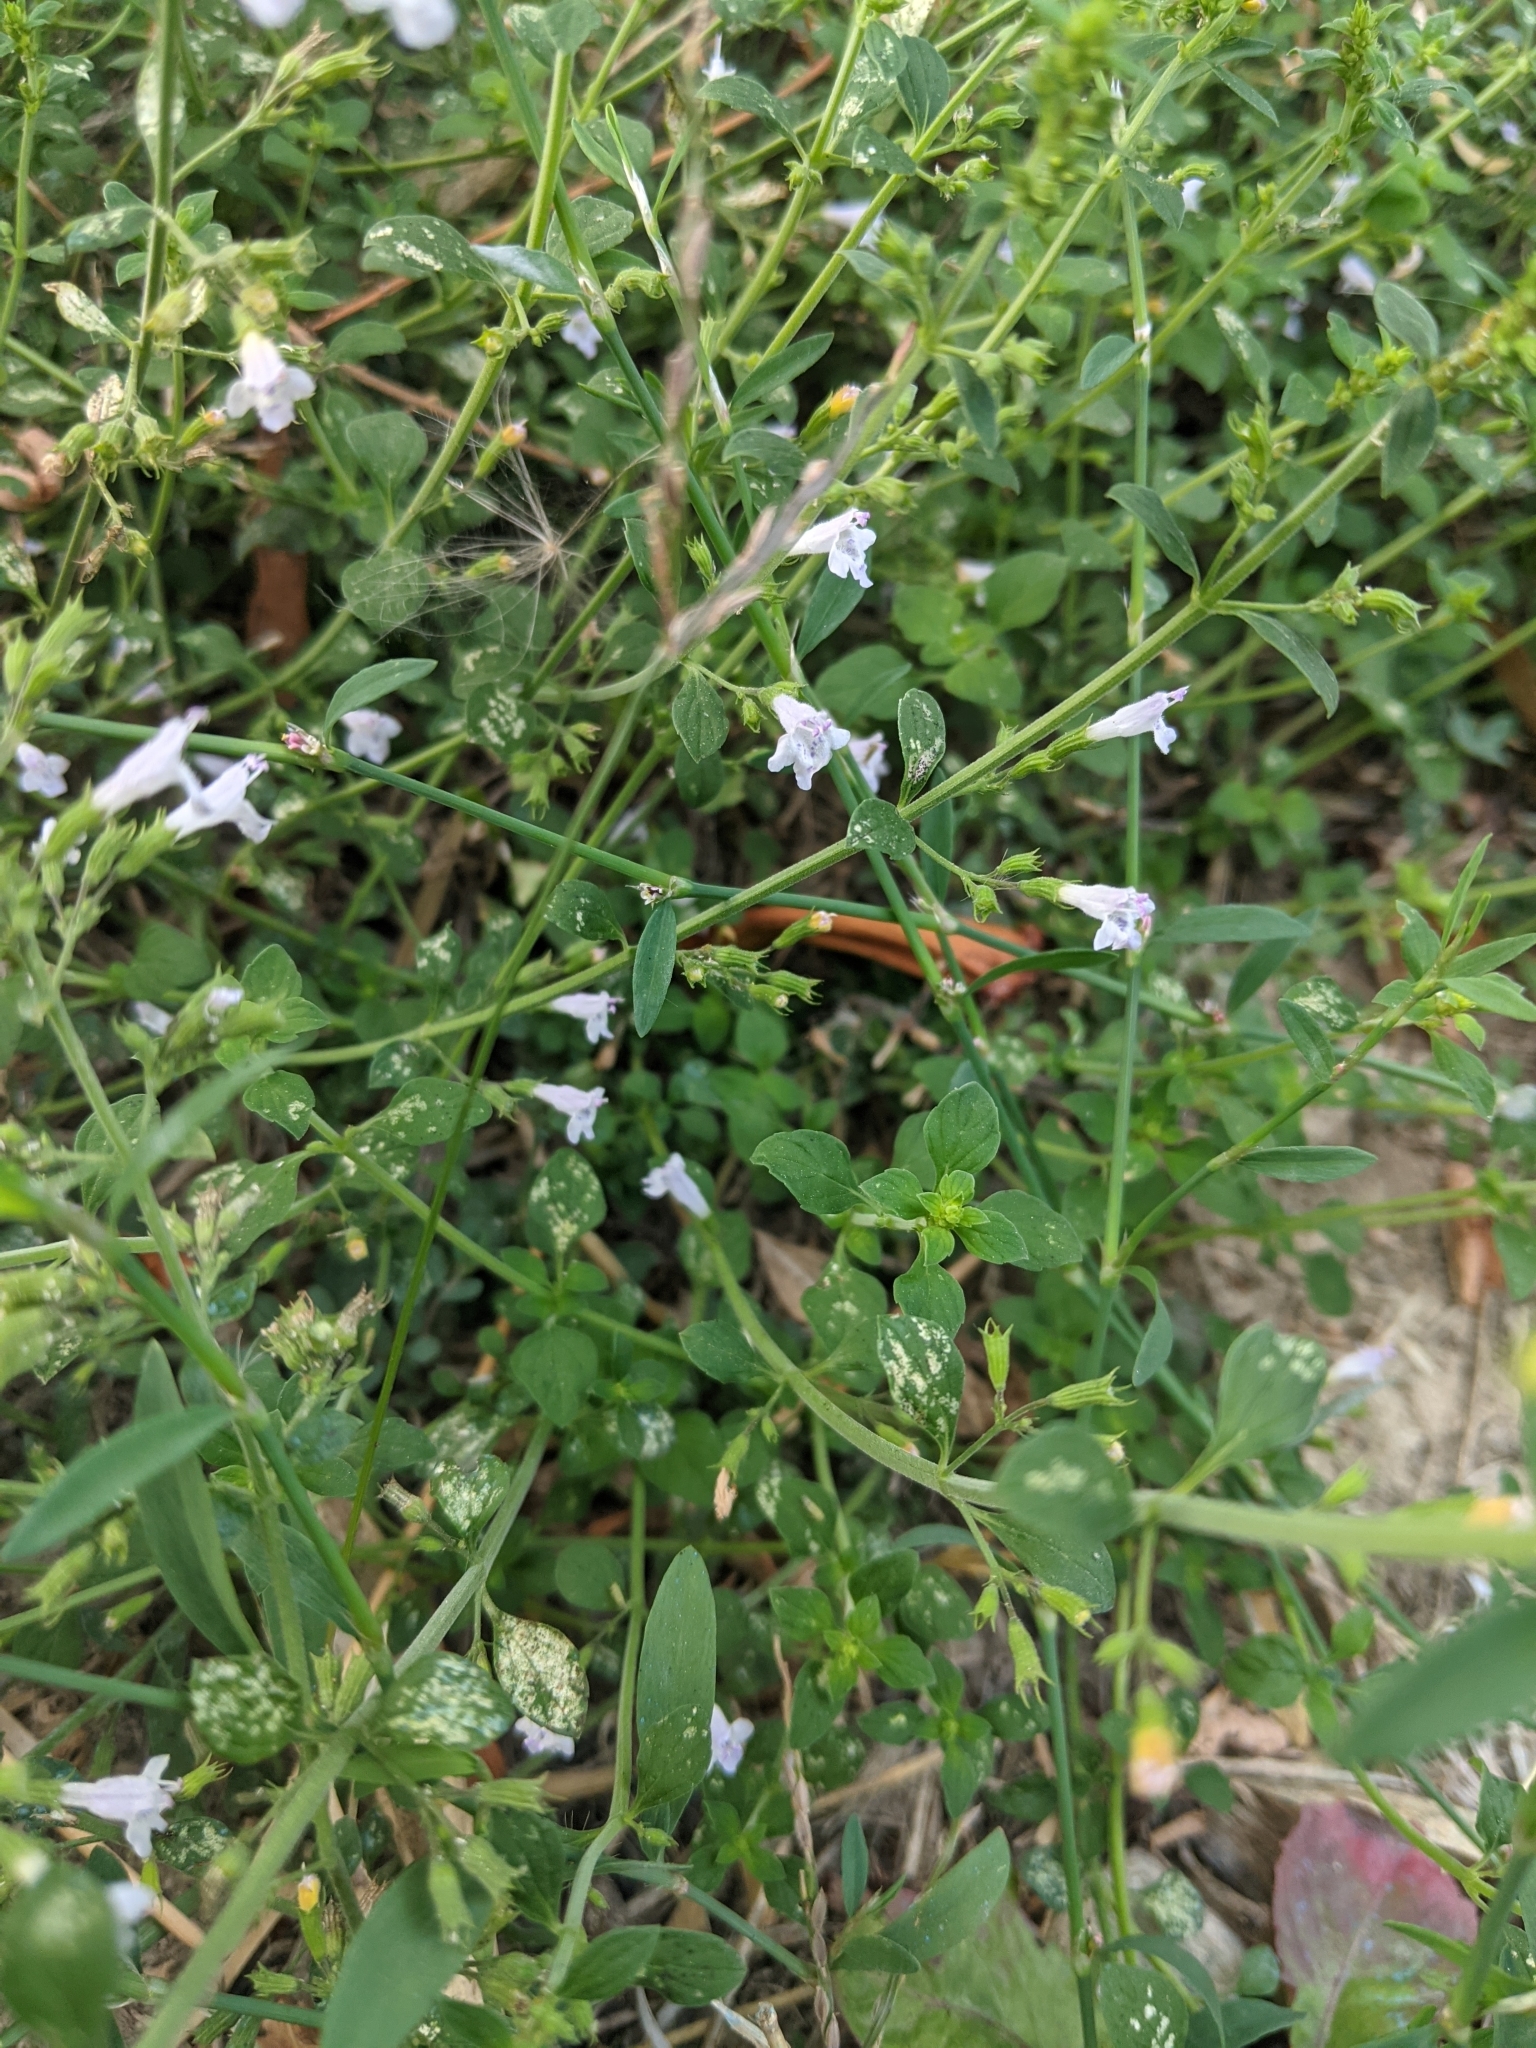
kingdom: Plantae
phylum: Tracheophyta
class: Magnoliopsida
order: Lamiales
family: Lamiaceae
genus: Clinopodium
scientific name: Clinopodium nepeta
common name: Lesser calamint
